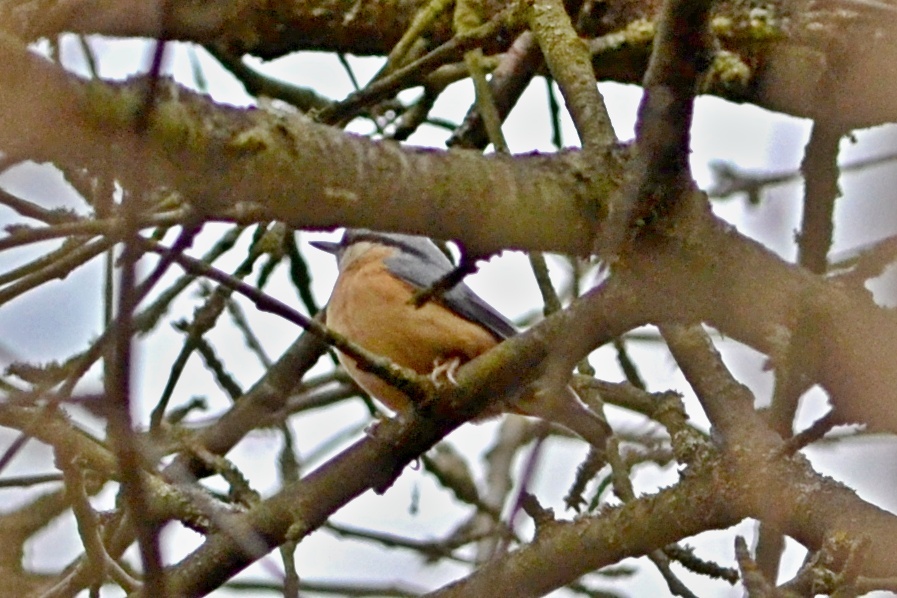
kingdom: Animalia
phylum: Chordata
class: Aves
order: Passeriformes
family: Sittidae
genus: Sitta
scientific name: Sitta europaea
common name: Eurasian nuthatch
